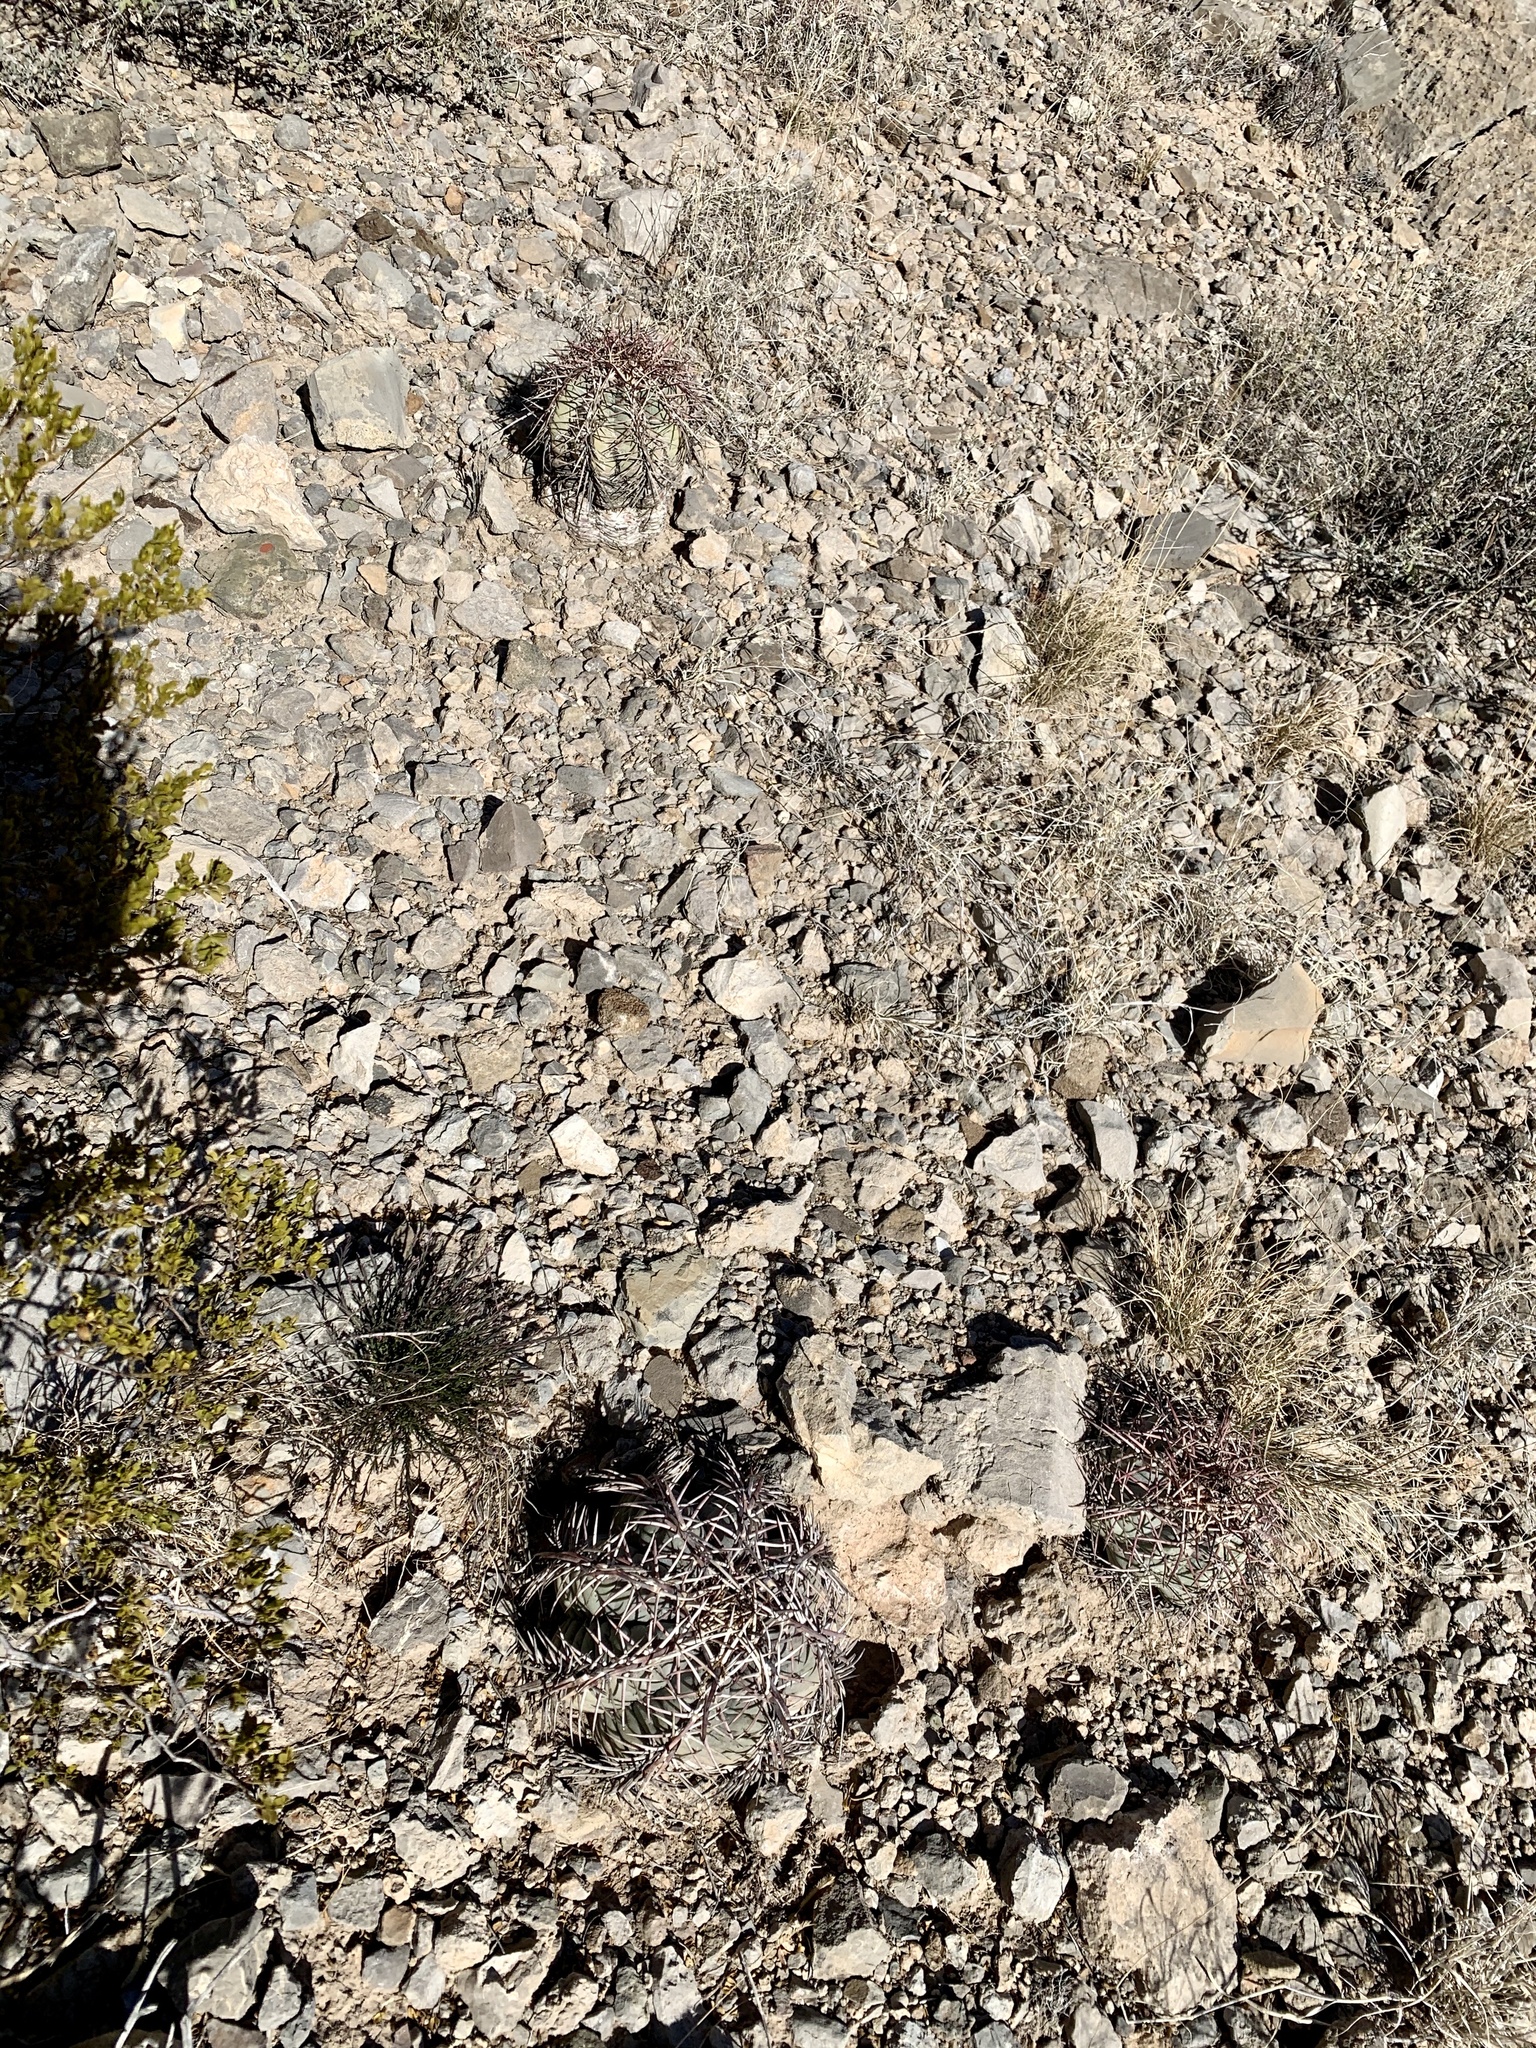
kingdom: Plantae
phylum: Tracheophyta
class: Magnoliopsida
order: Caryophyllales
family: Cactaceae
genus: Echinocactus
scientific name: Echinocactus horizonthalonius
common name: Devilshead
